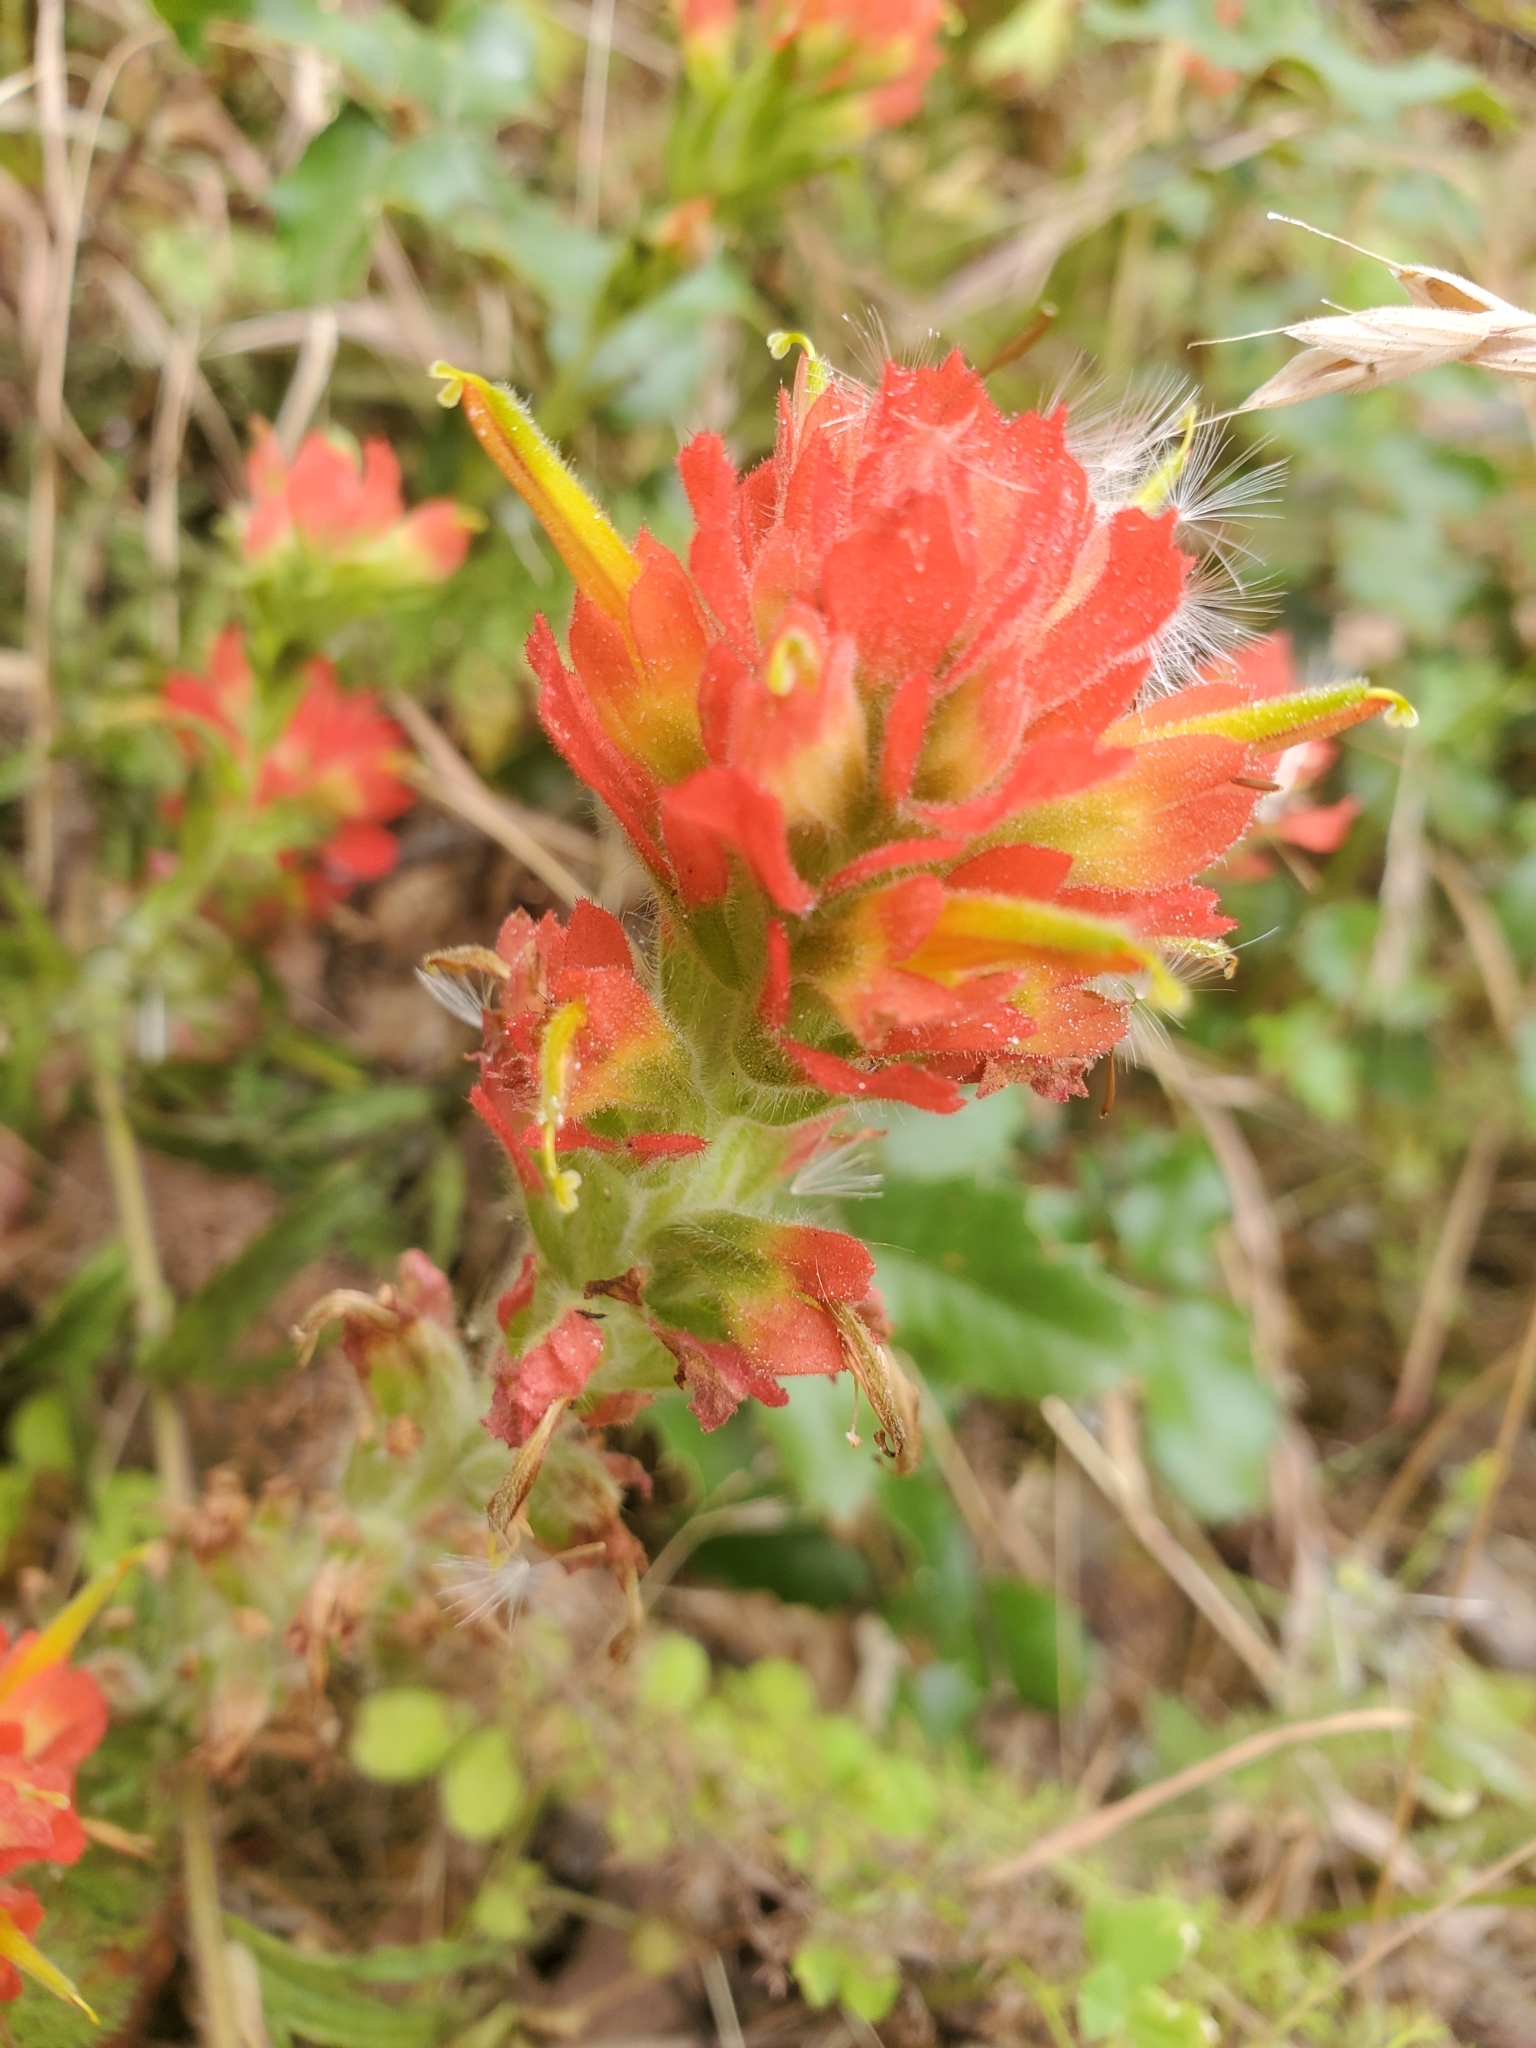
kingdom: Plantae
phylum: Tracheophyta
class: Magnoliopsida
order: Lamiales
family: Orobanchaceae
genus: Castilleja
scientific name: Castilleja affinis
